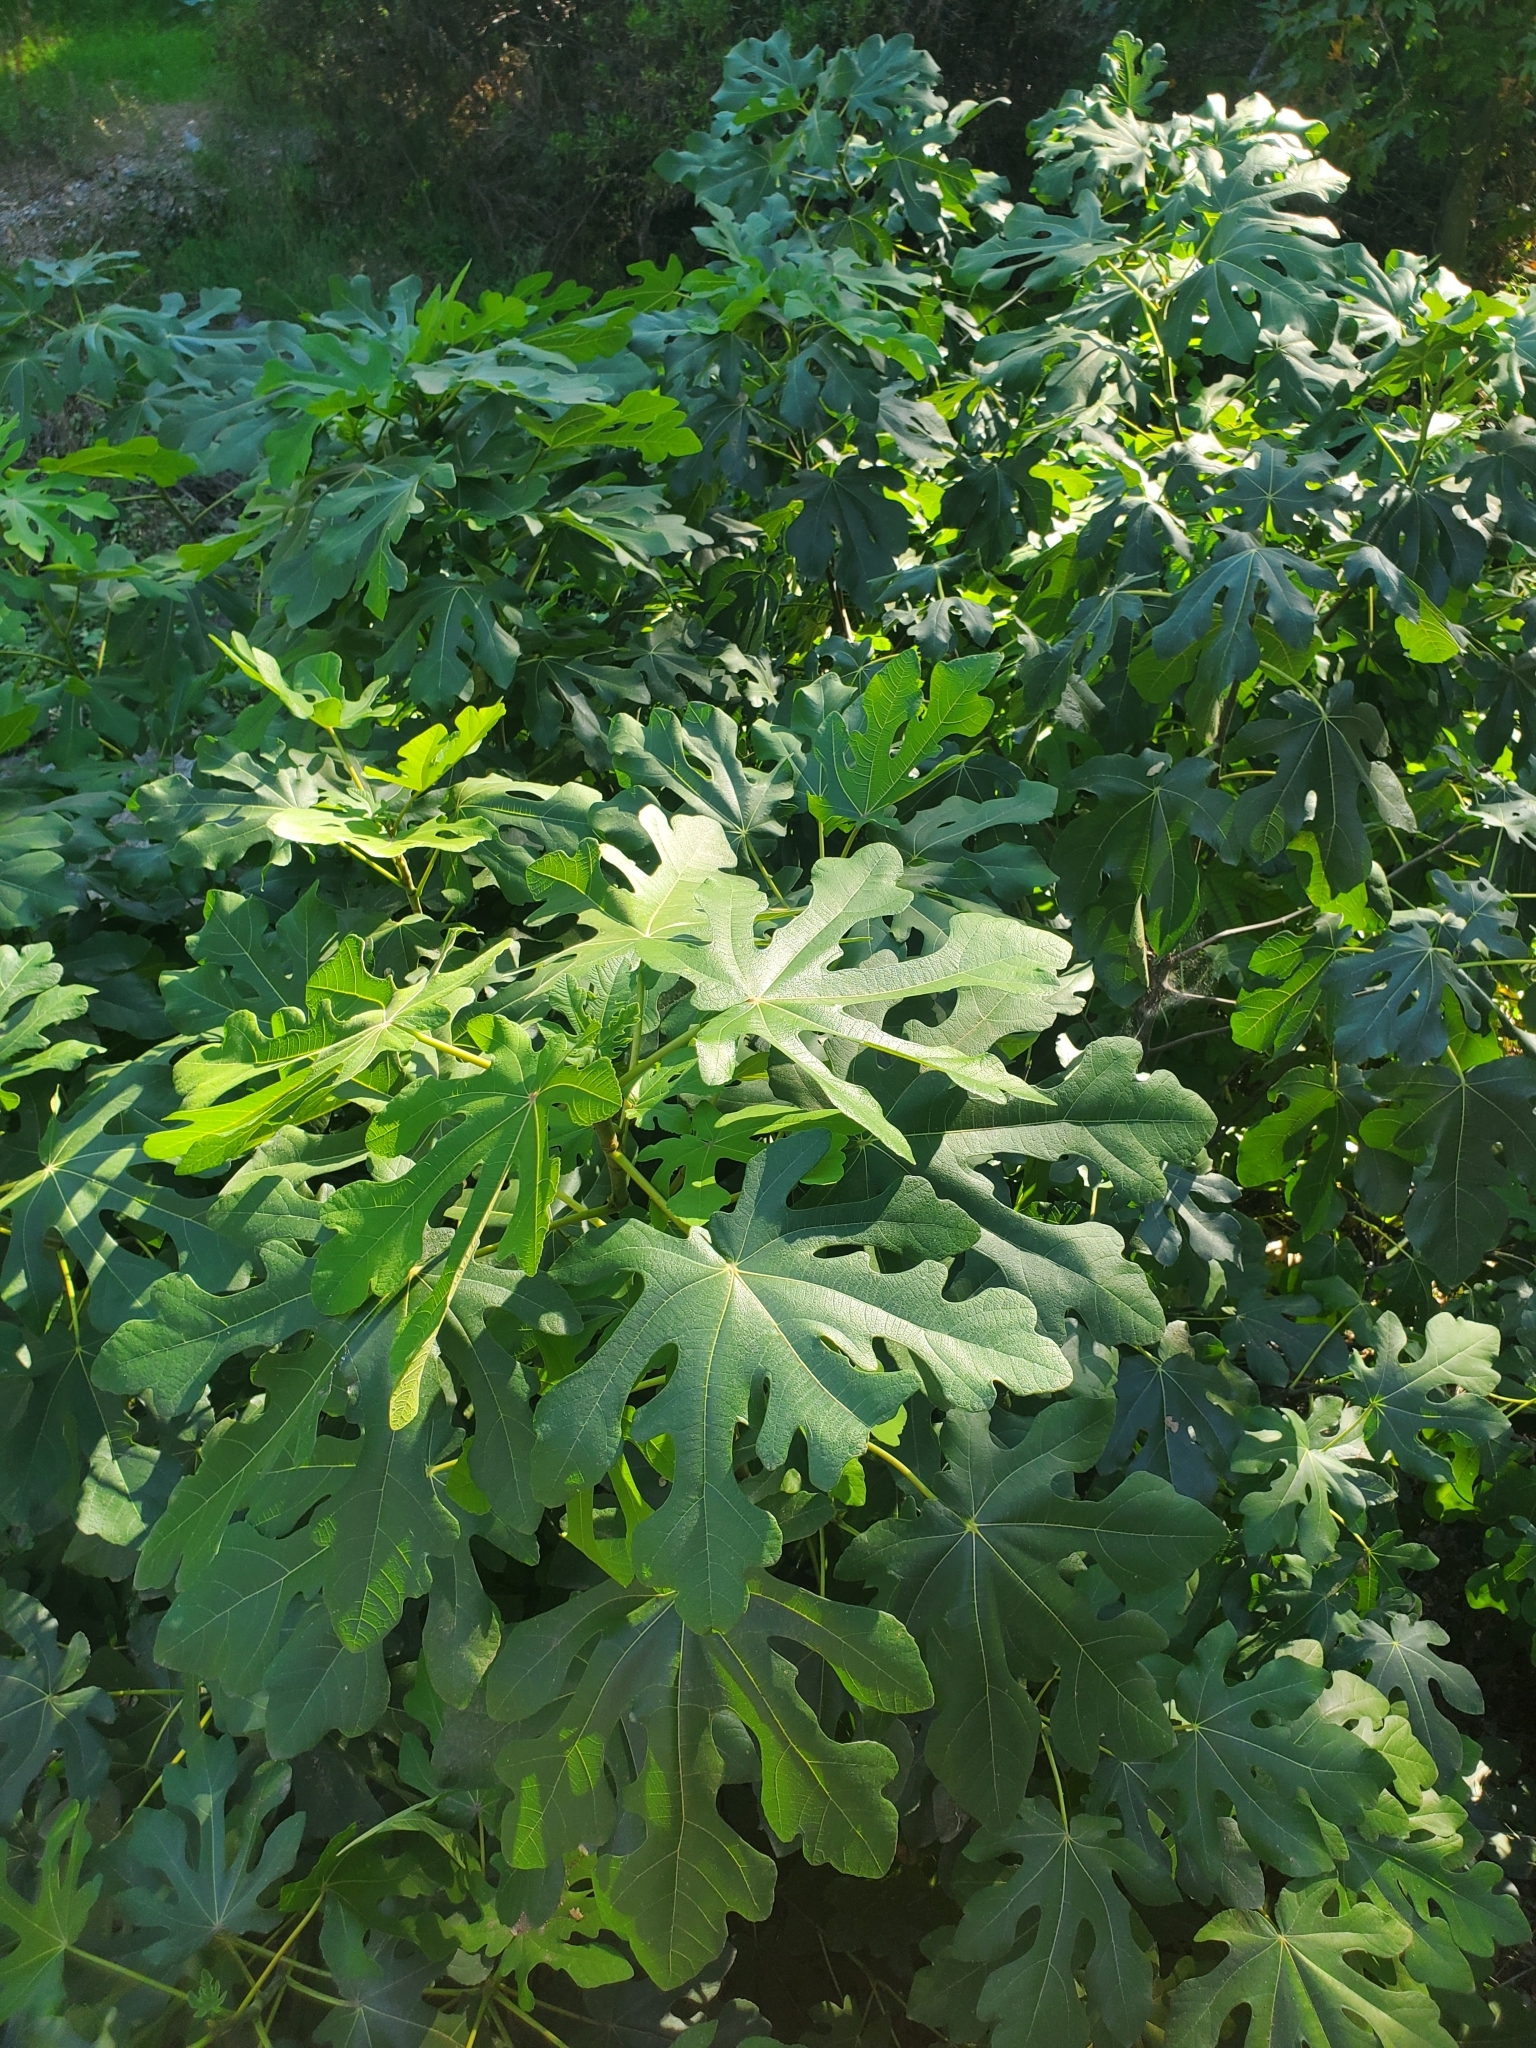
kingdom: Plantae
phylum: Tracheophyta
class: Magnoliopsida
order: Rosales
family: Moraceae
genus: Ficus
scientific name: Ficus carica
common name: Fig
